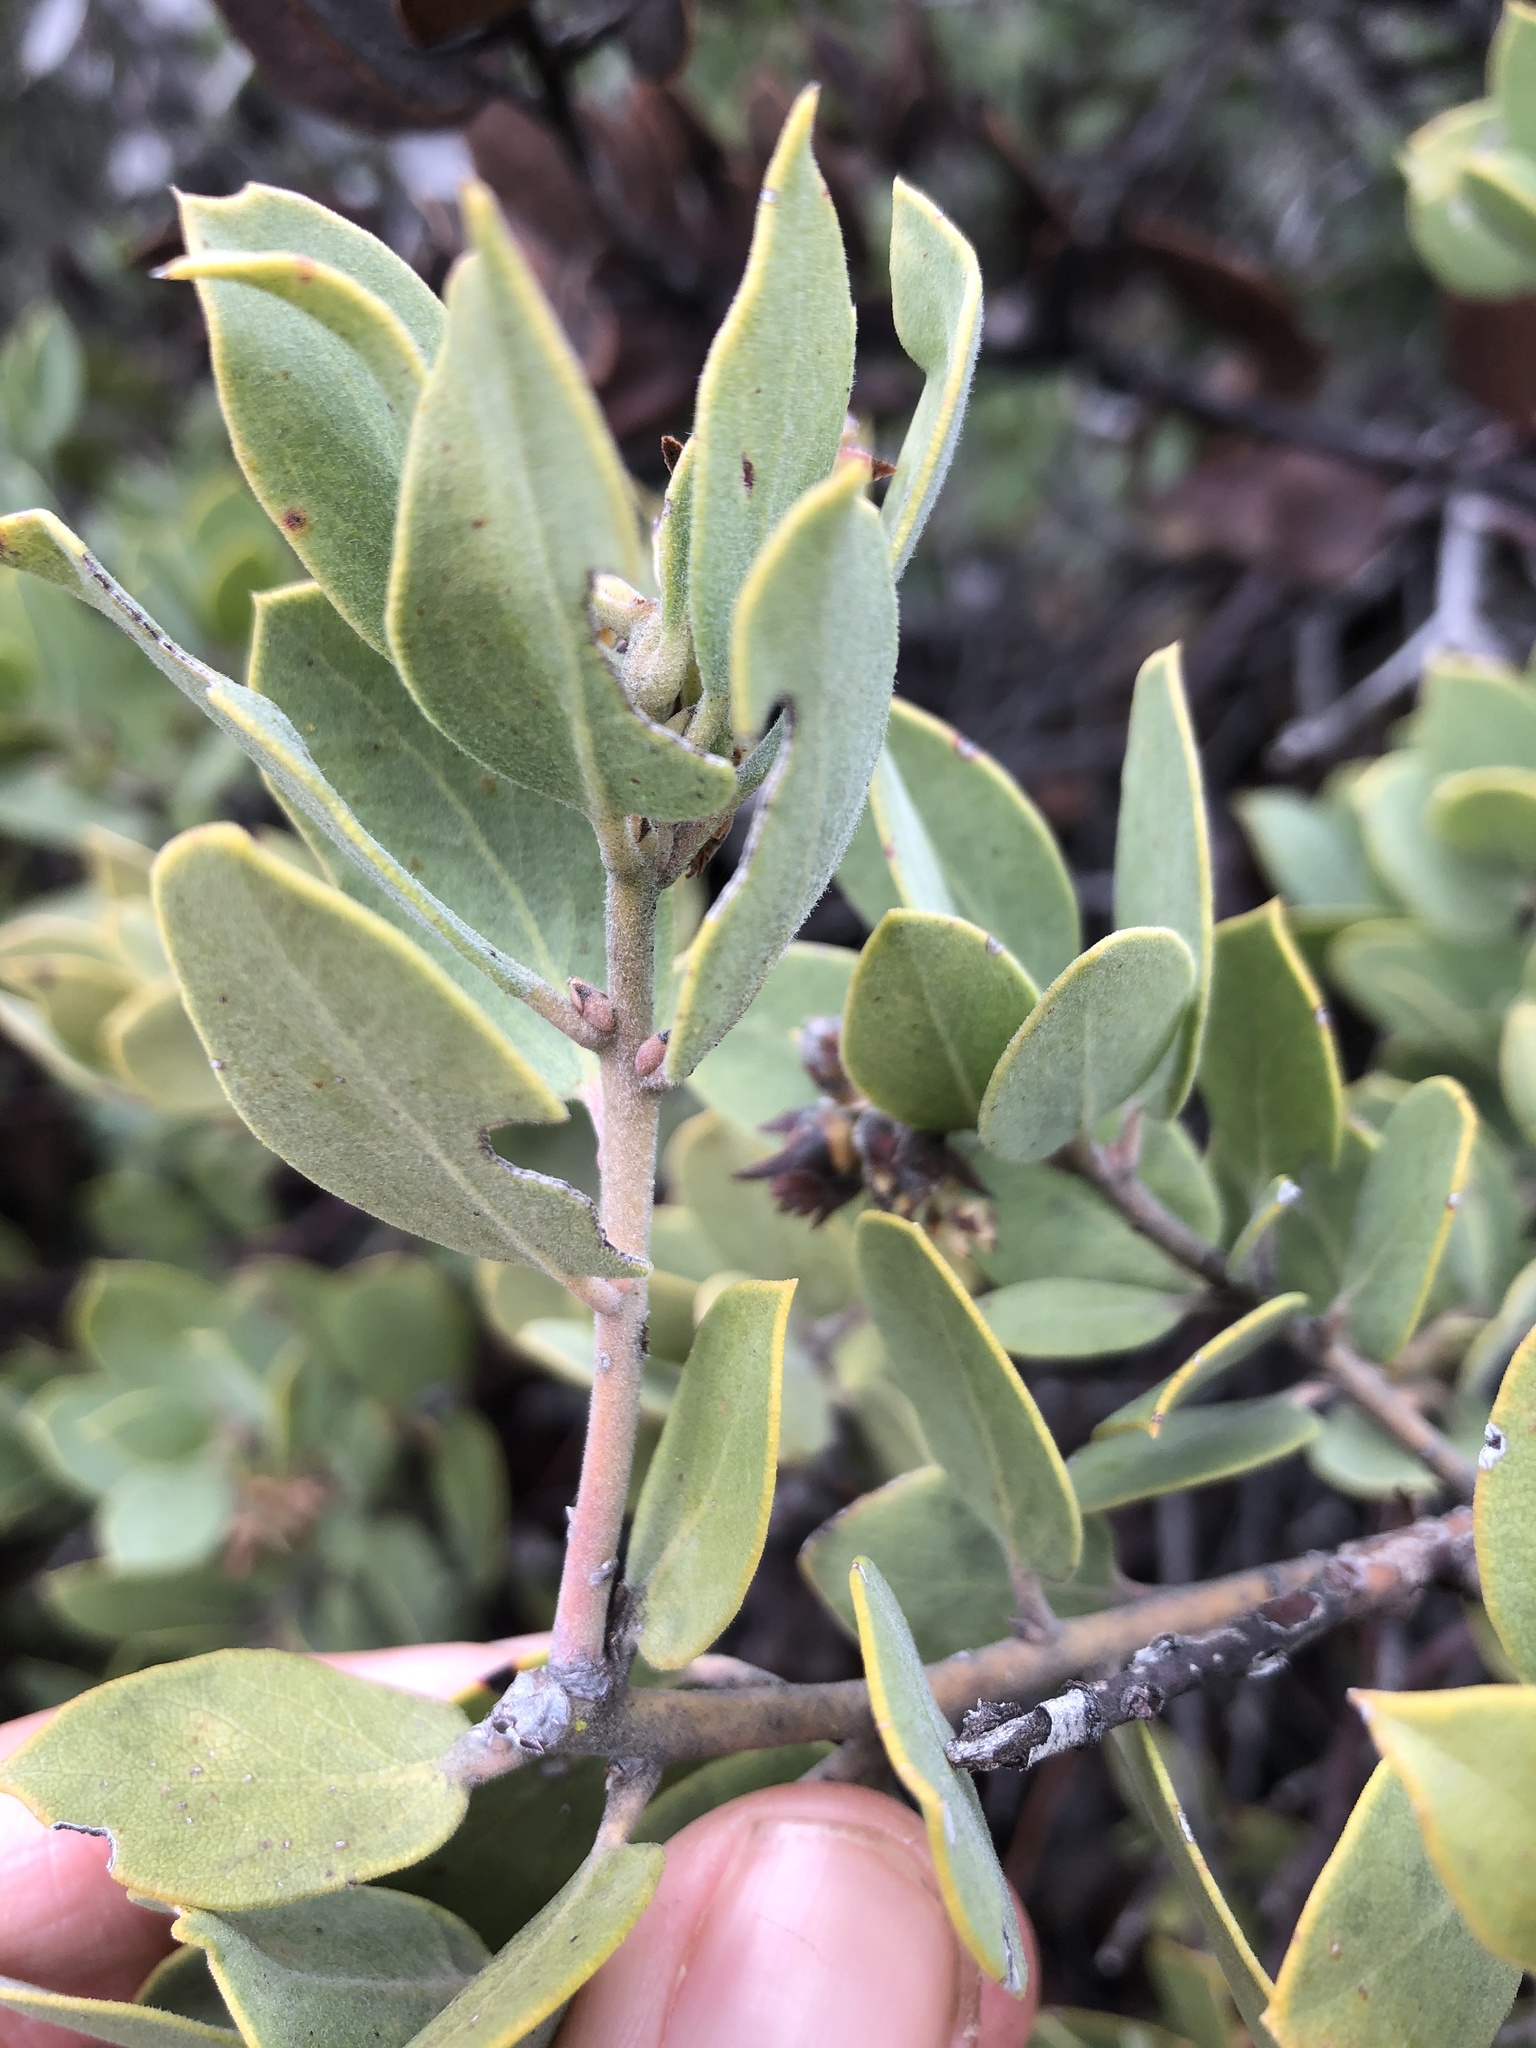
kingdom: Plantae
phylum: Tracheophyta
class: Magnoliopsida
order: Ericales
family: Ericaceae
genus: Arctostaphylos
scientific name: Arctostaphylos glandulosa
